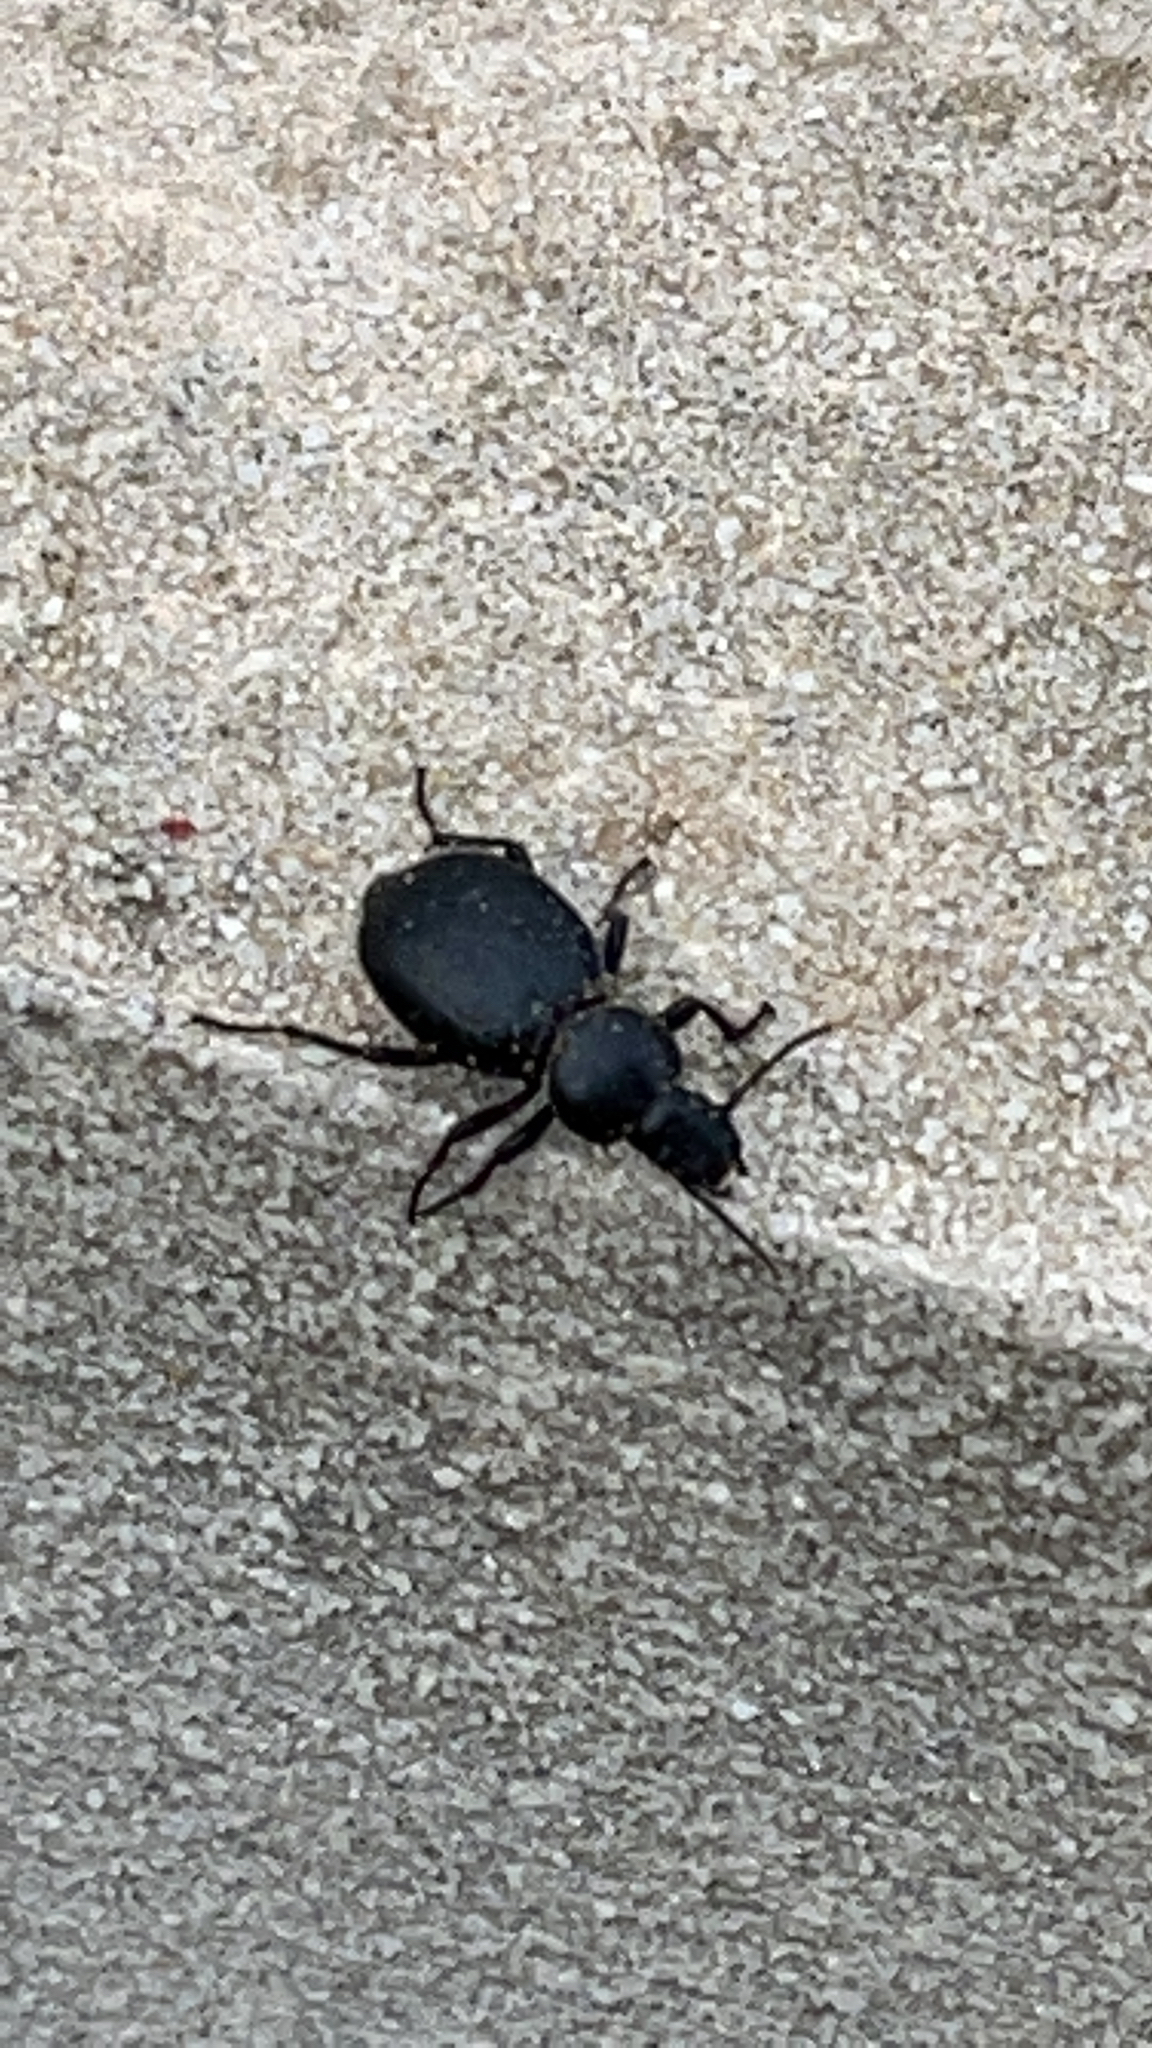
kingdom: Animalia
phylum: Arthropoda
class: Insecta
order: Coleoptera
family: Tenebrionidae
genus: Tentyrina
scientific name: Tentyrina
